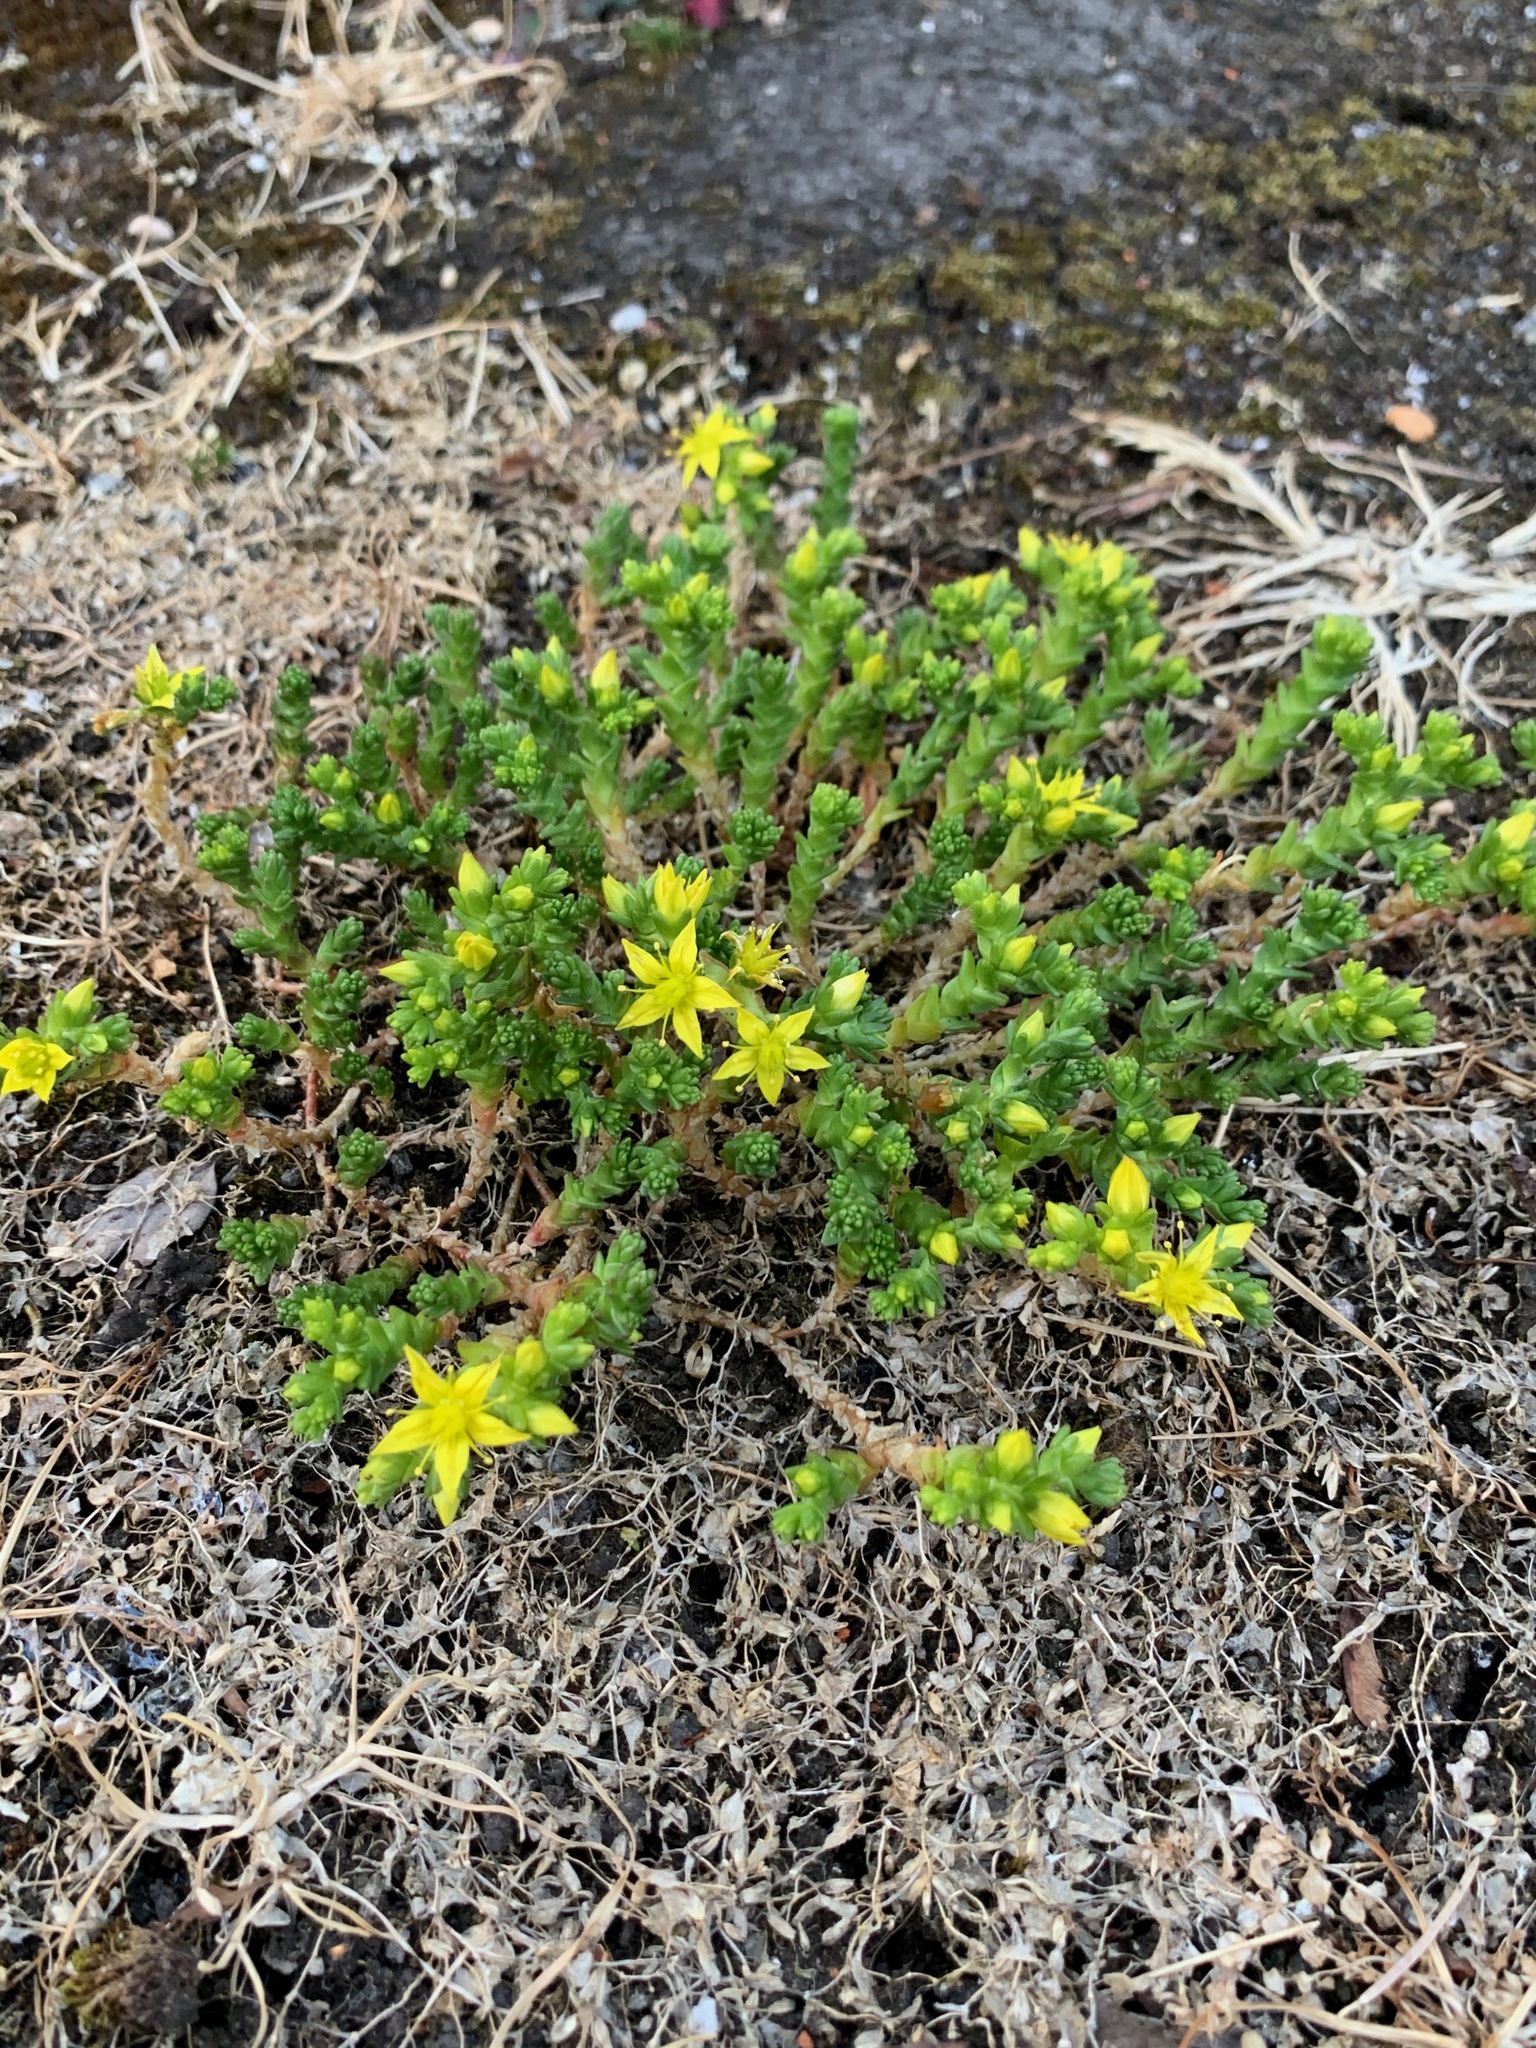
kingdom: Plantae
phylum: Tracheophyta
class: Magnoliopsida
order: Saxifragales
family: Crassulaceae
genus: Sedum
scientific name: Sedum acre
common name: Biting stonecrop
